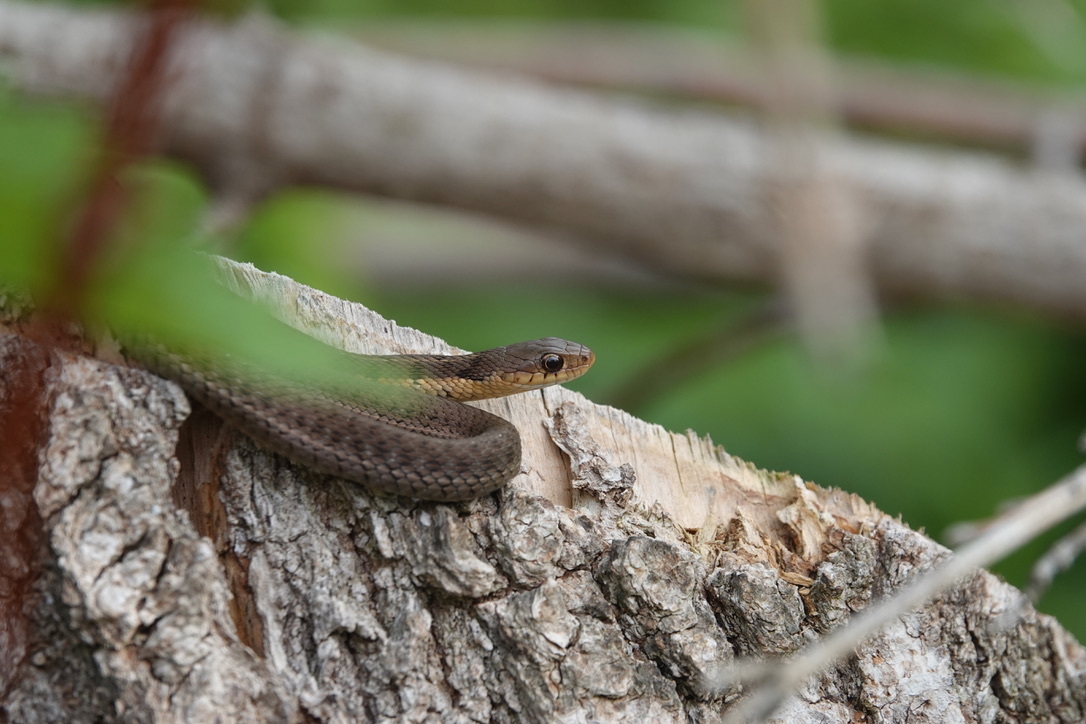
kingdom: Animalia
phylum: Chordata
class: Squamata
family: Colubridae
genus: Thamnophis
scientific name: Thamnophis sirtalis
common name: Common garter snake
